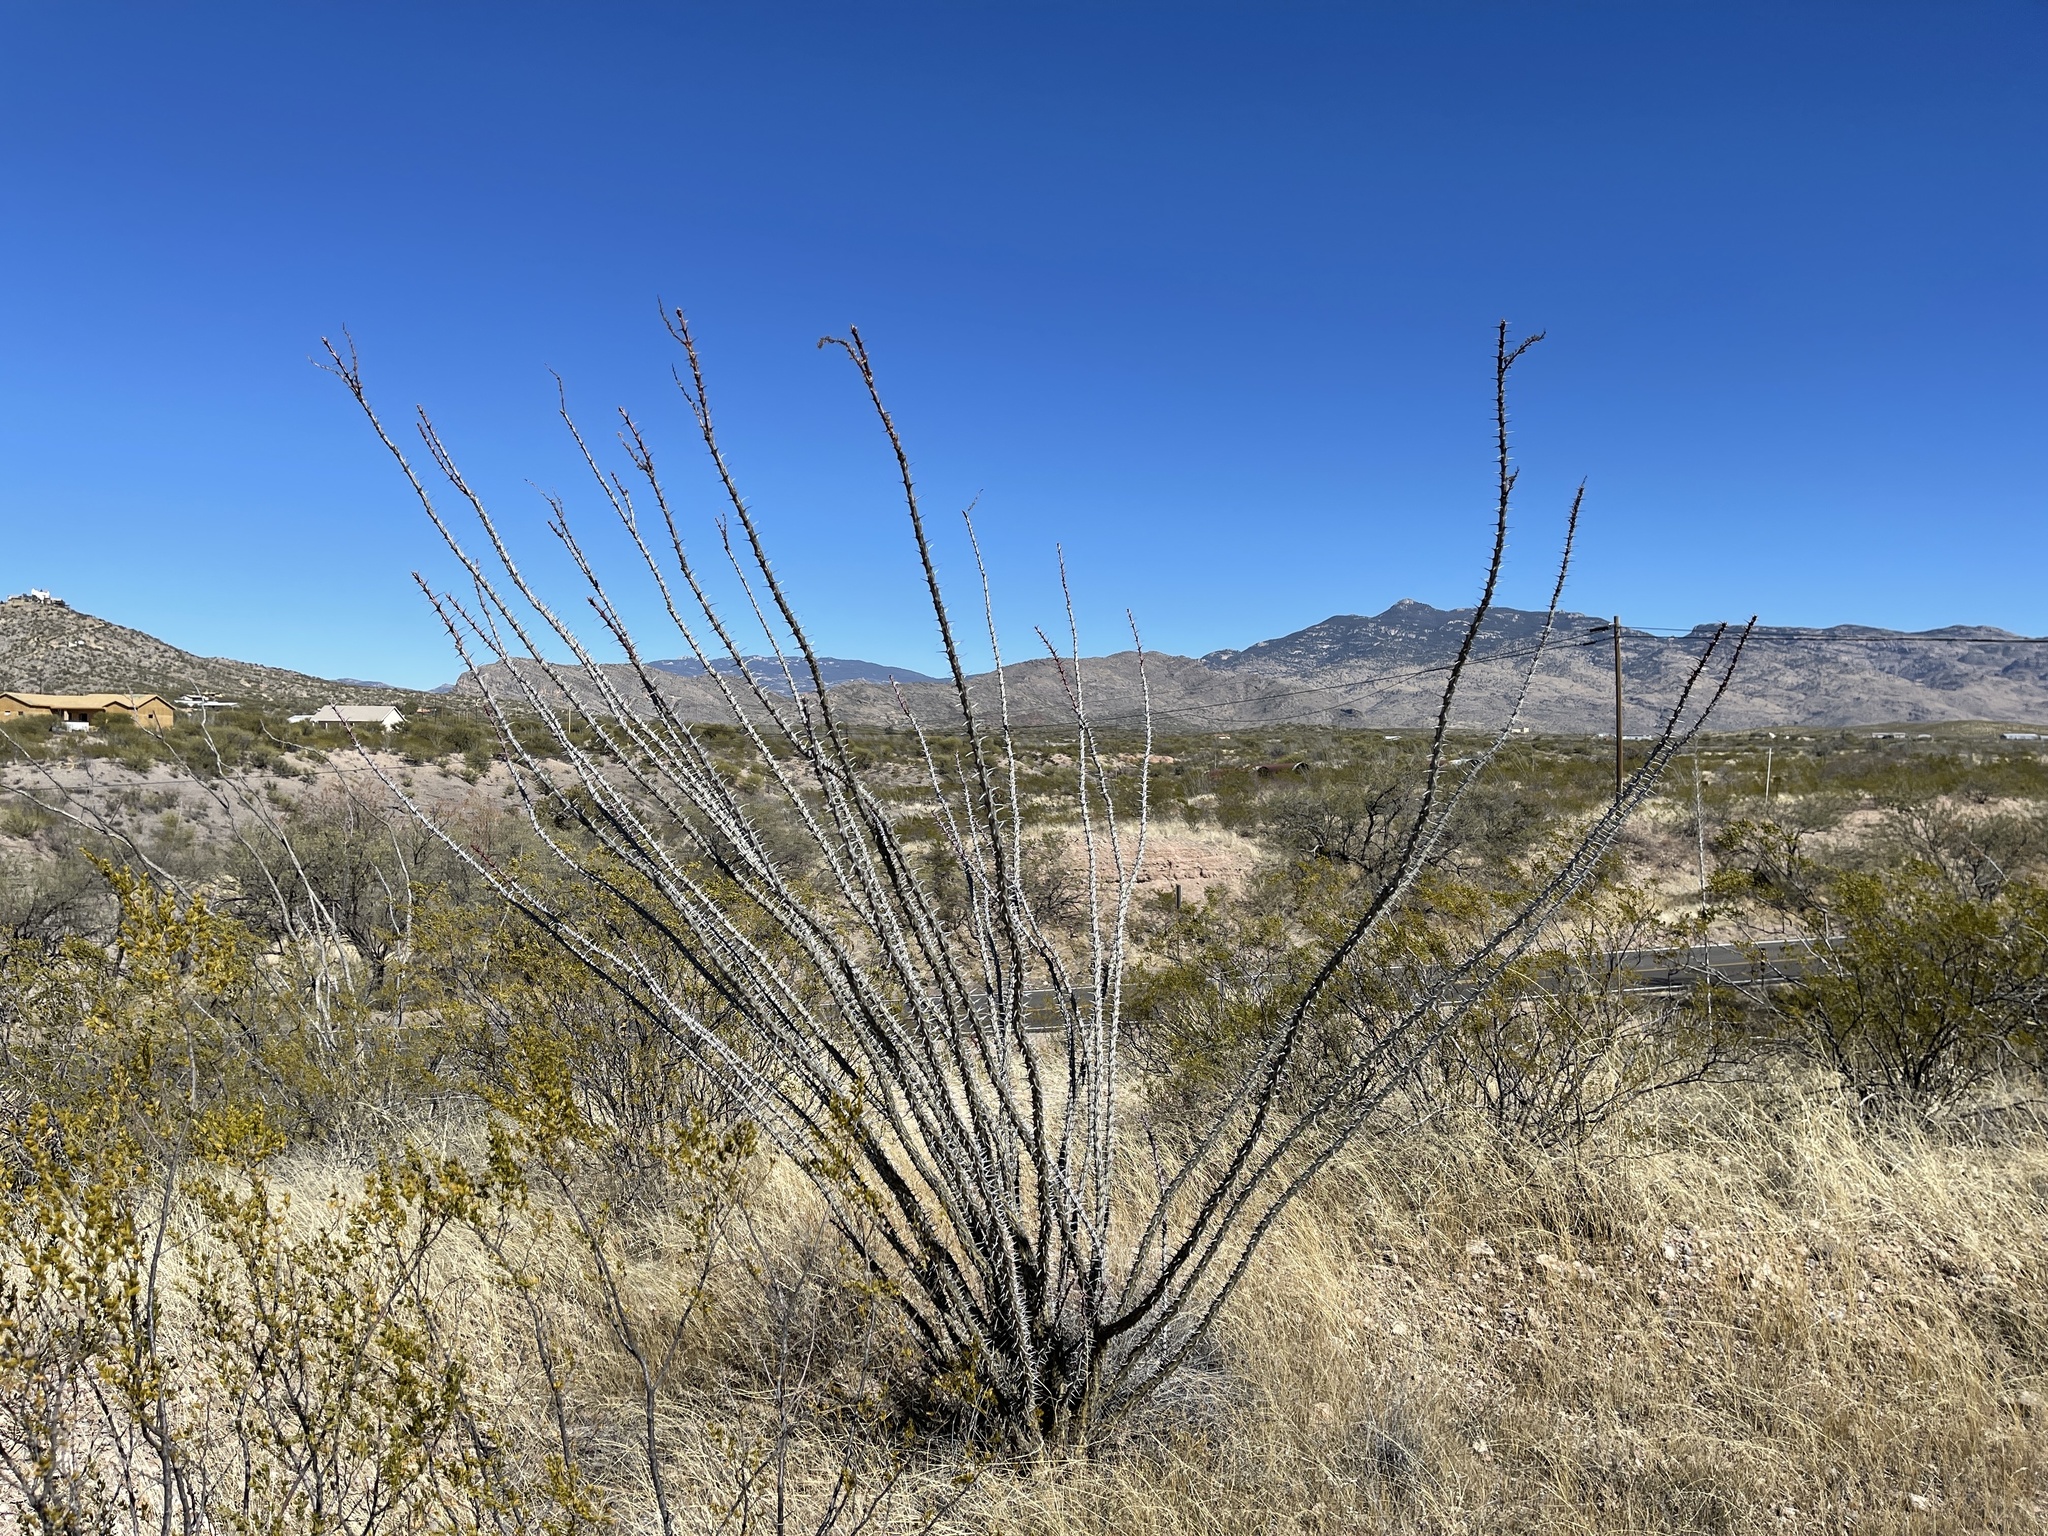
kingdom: Plantae
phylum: Tracheophyta
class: Magnoliopsida
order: Ericales
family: Fouquieriaceae
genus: Fouquieria
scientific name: Fouquieria splendens
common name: Vine-cactus
